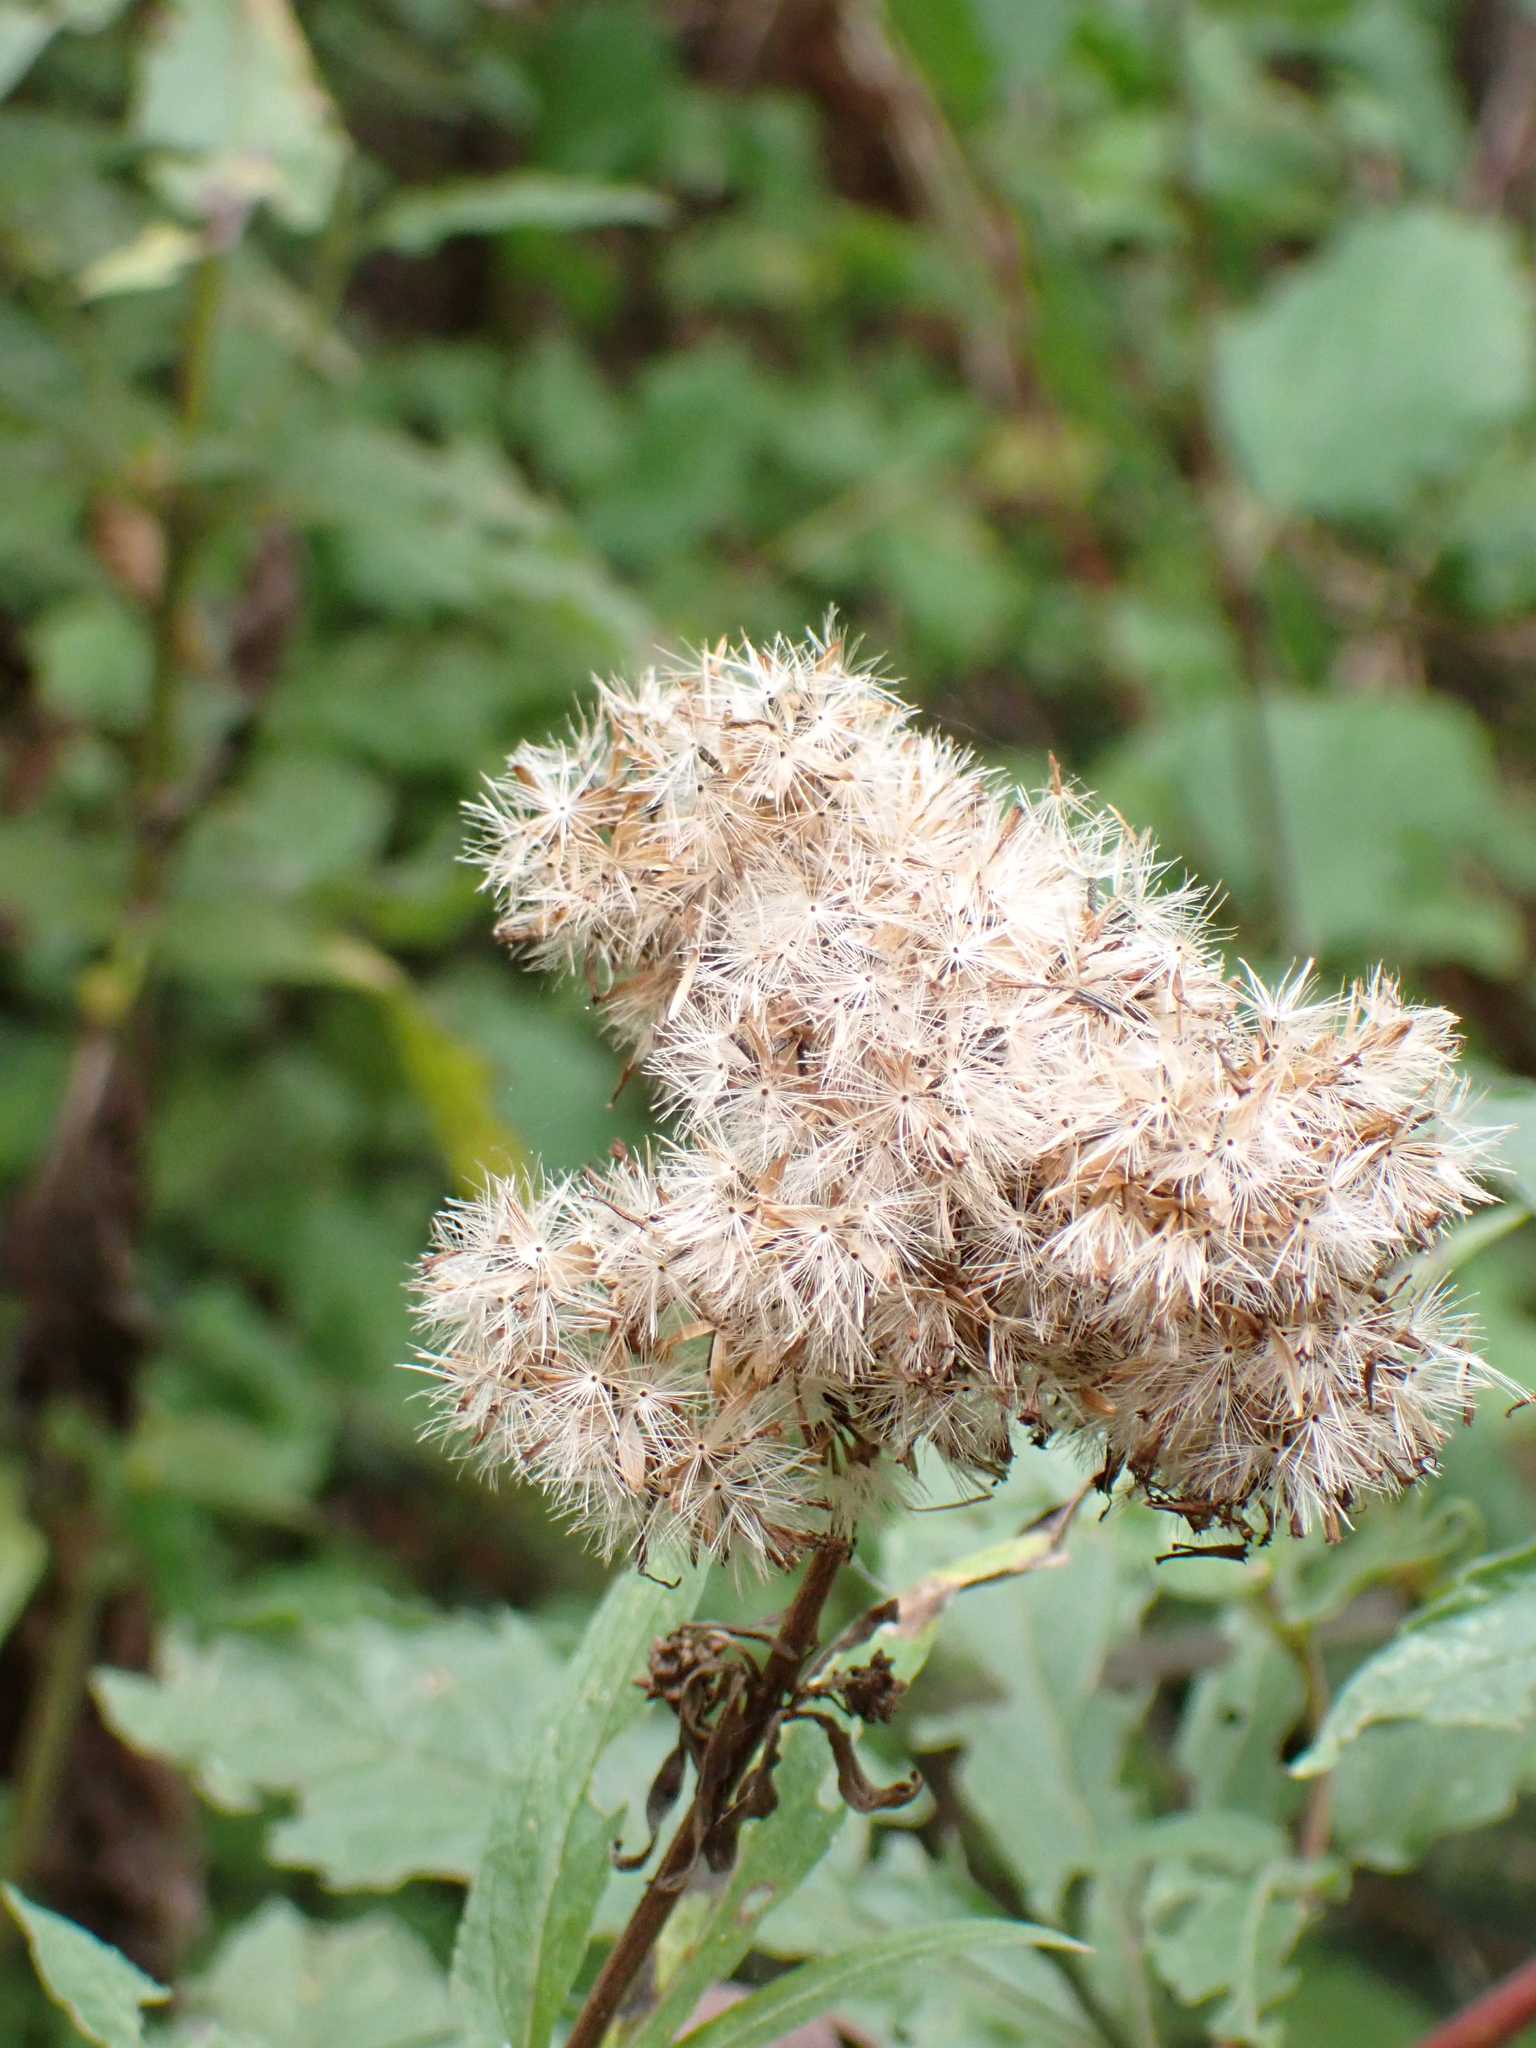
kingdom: Plantae
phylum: Tracheophyta
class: Magnoliopsida
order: Asterales
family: Asteraceae
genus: Eupatorium
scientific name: Eupatorium cannabinum
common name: Hemp-agrimony
